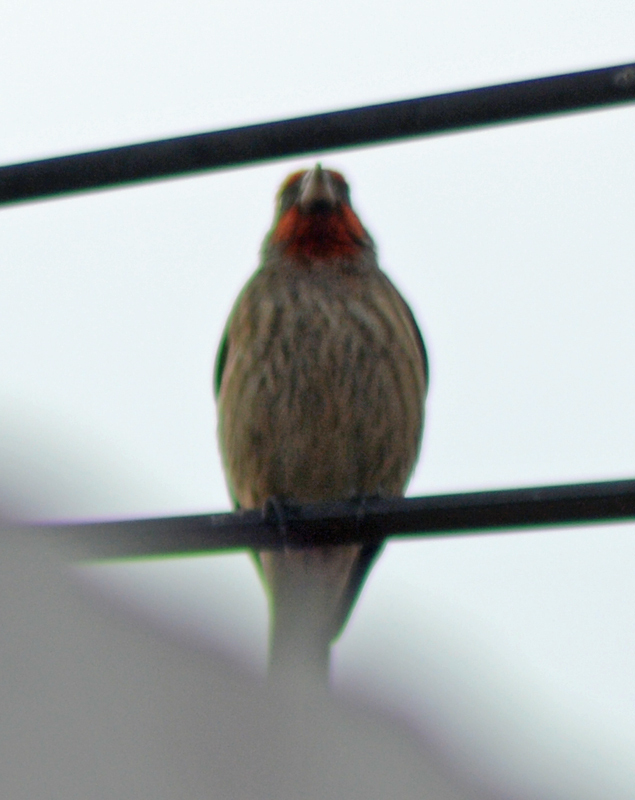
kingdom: Animalia
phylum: Chordata
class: Aves
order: Passeriformes
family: Fringillidae
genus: Haemorhous
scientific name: Haemorhous mexicanus
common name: House finch
